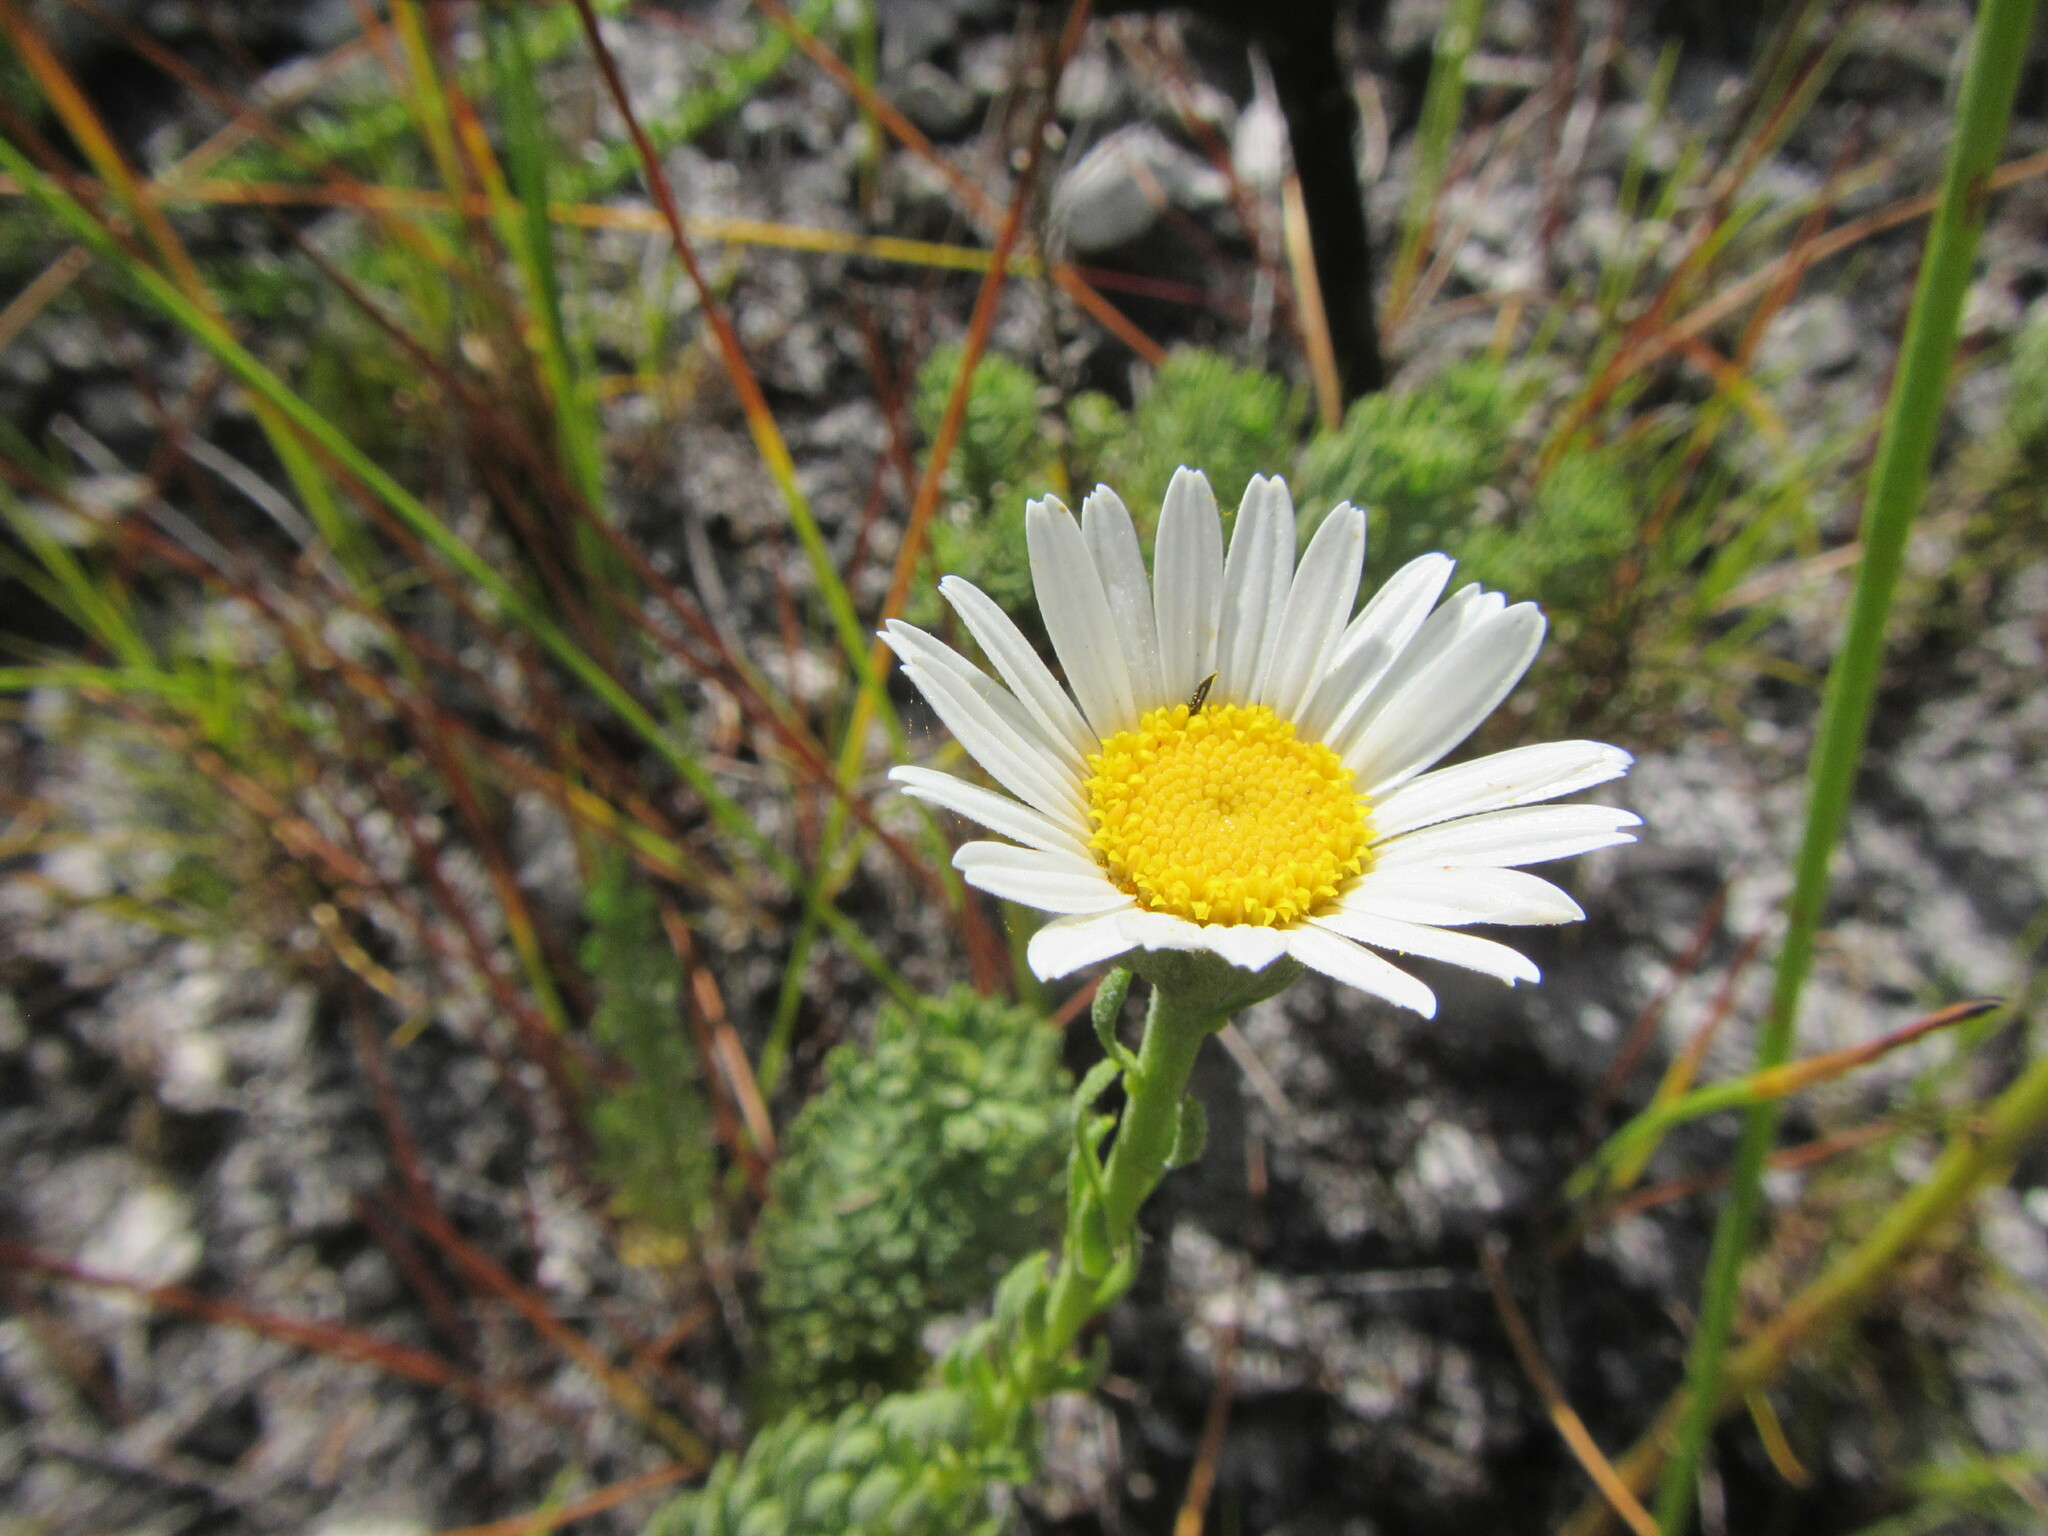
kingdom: Plantae
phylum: Tracheophyta
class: Magnoliopsida
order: Asterales
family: Asteraceae
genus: Osmitopsis
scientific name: Osmitopsis afra
